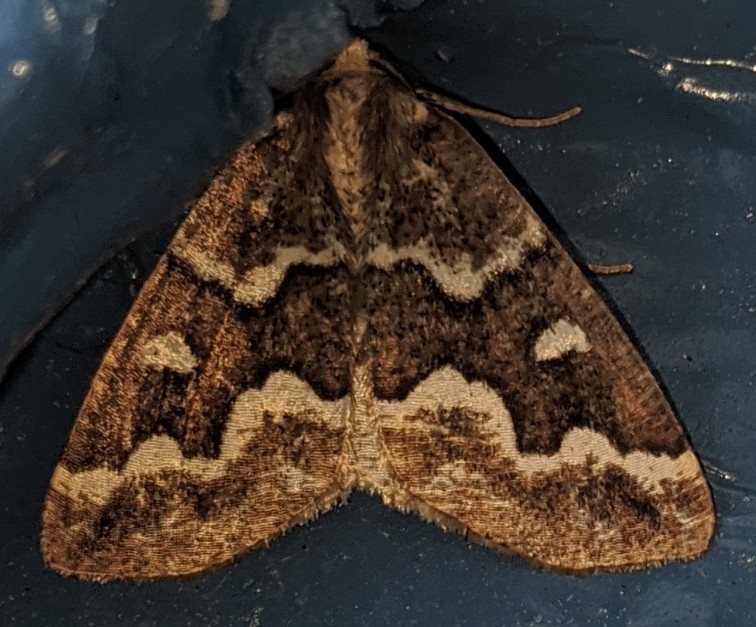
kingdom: Animalia
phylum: Arthropoda
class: Insecta
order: Lepidoptera
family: Geometridae
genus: Caripeta
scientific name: Caripeta divisata
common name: Gray spruce looper
